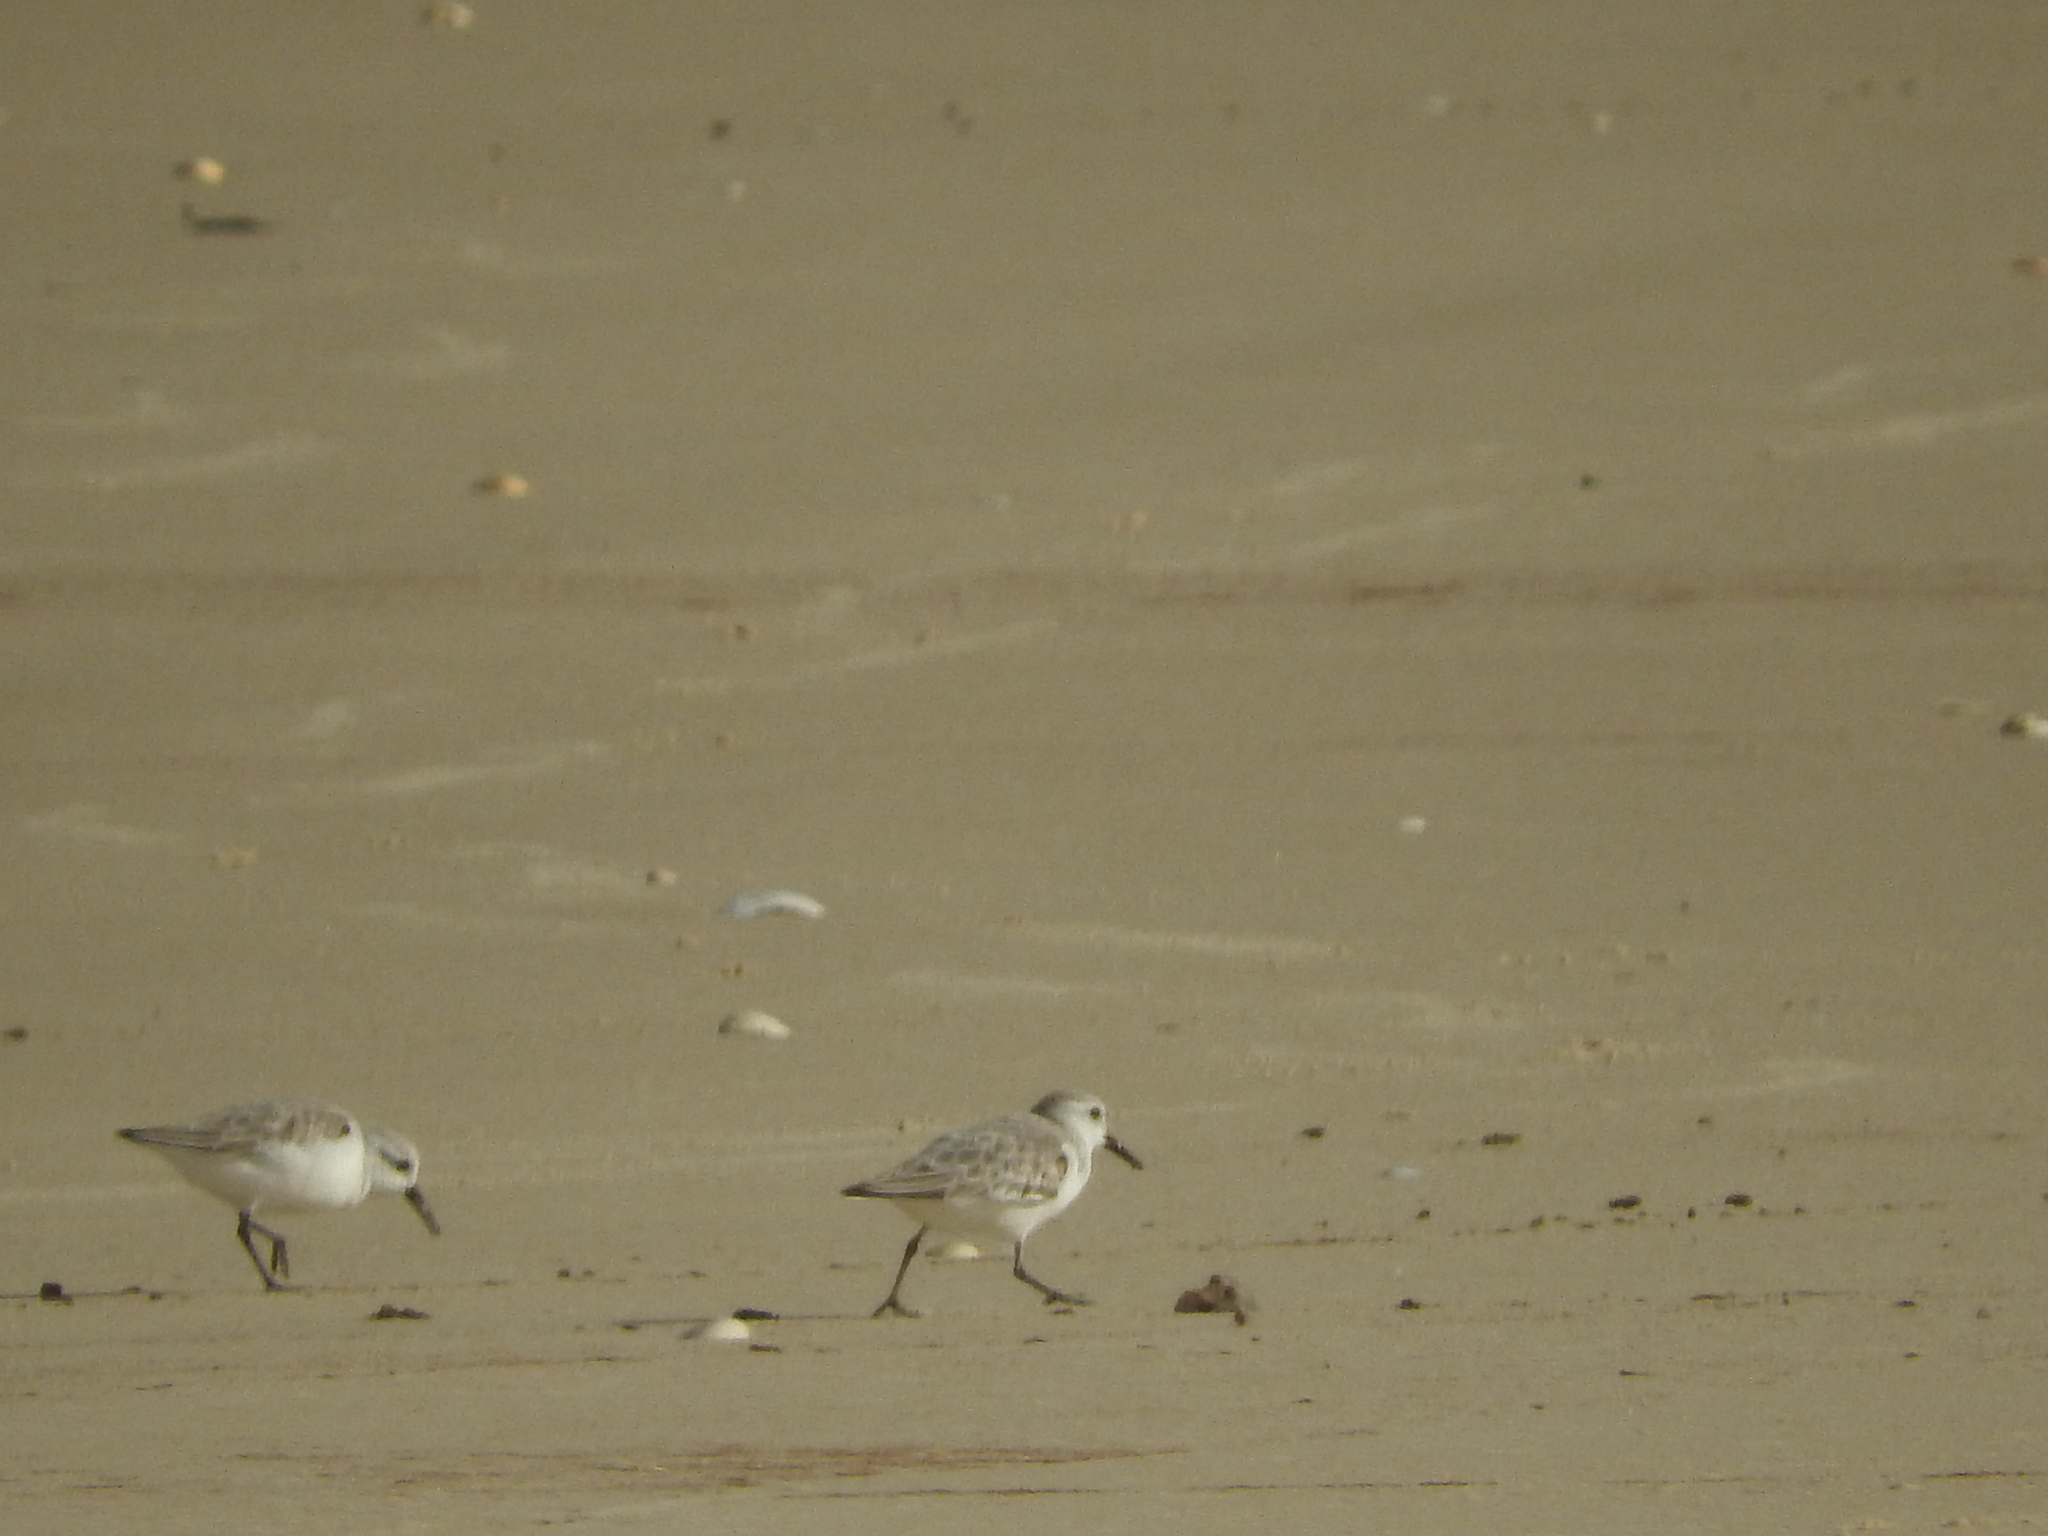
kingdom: Animalia
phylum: Chordata
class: Aves
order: Charadriiformes
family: Scolopacidae
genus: Calidris
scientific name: Calidris alba
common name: Sanderling
